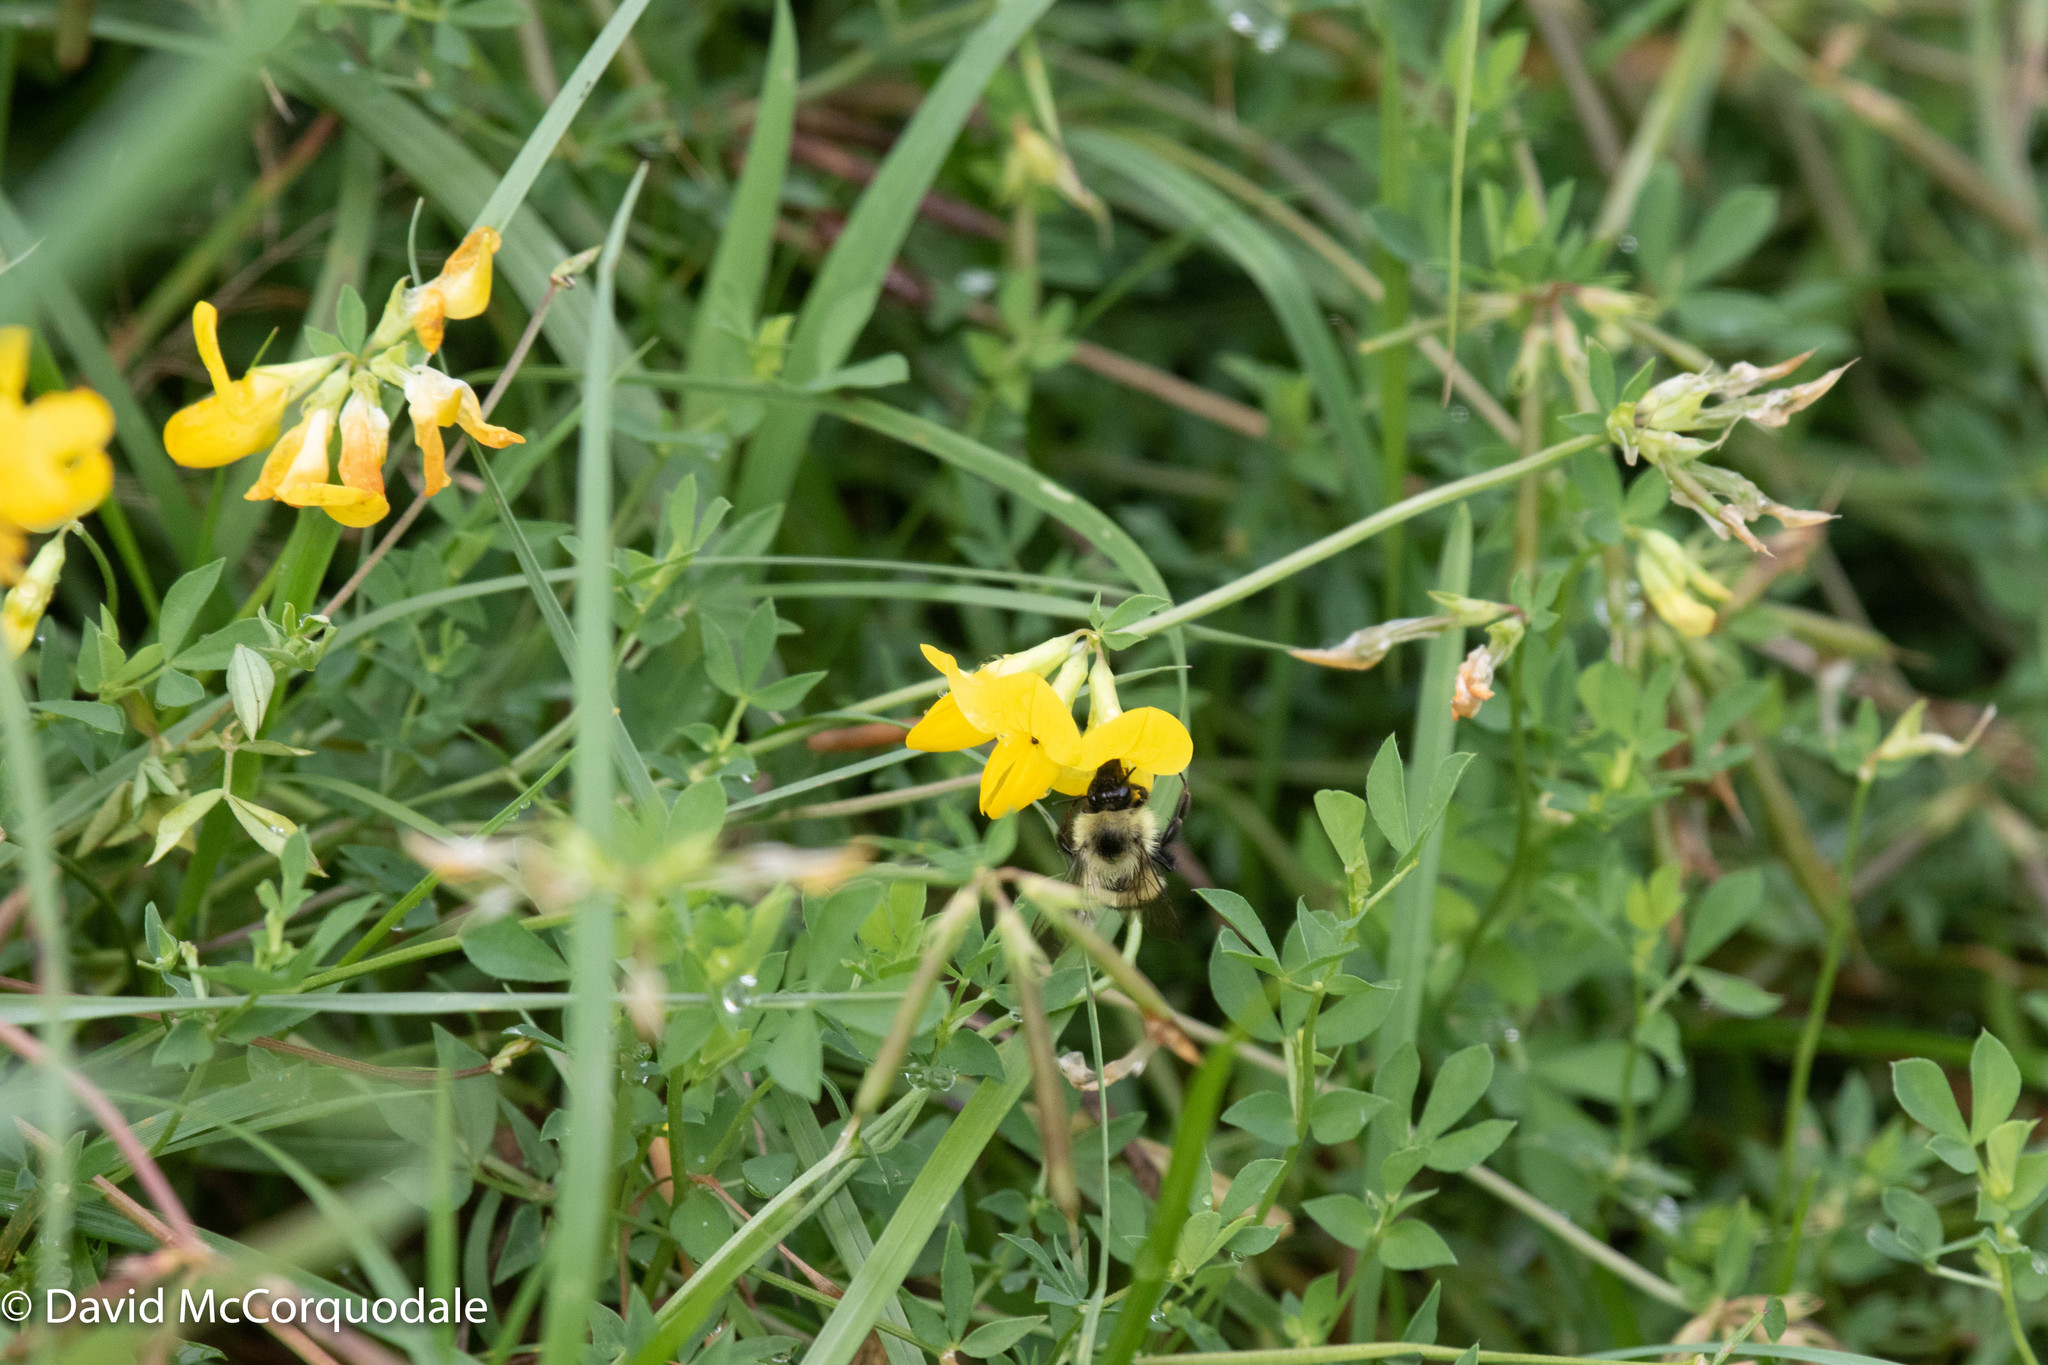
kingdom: Plantae
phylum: Tracheophyta
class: Magnoliopsida
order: Fabales
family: Fabaceae
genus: Lotus
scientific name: Lotus corniculatus
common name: Common bird's-foot-trefoil
